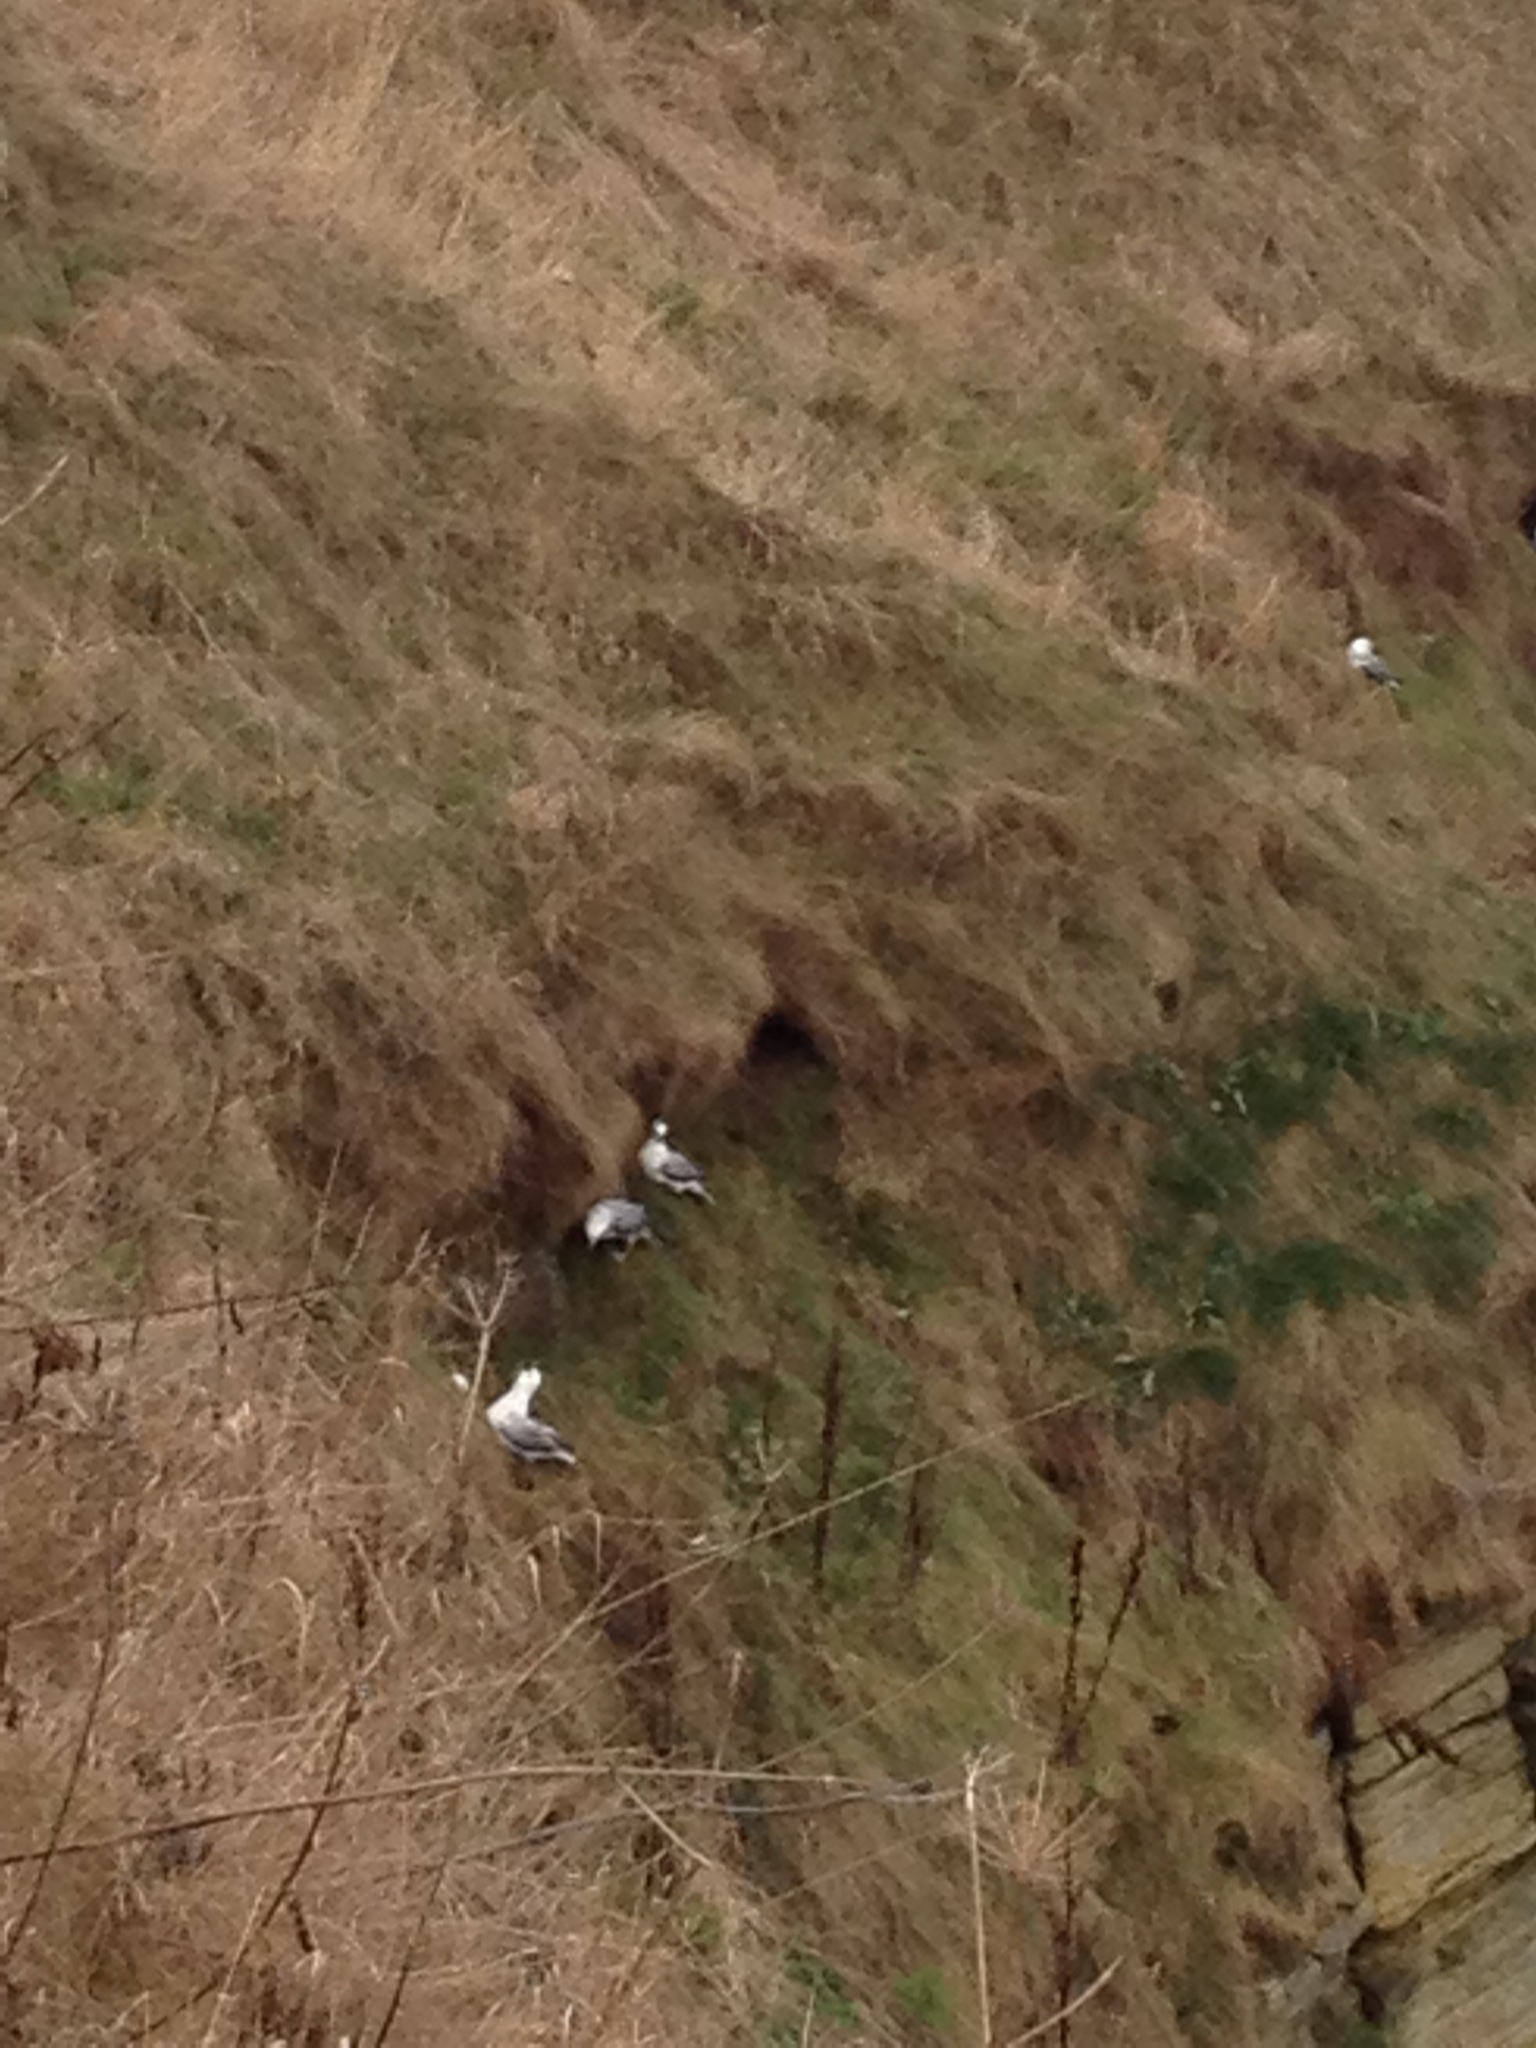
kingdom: Animalia
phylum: Chordata
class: Aves
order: Procellariiformes
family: Procellariidae
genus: Fulmarus
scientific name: Fulmarus glacialis
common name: Northern fulmar
